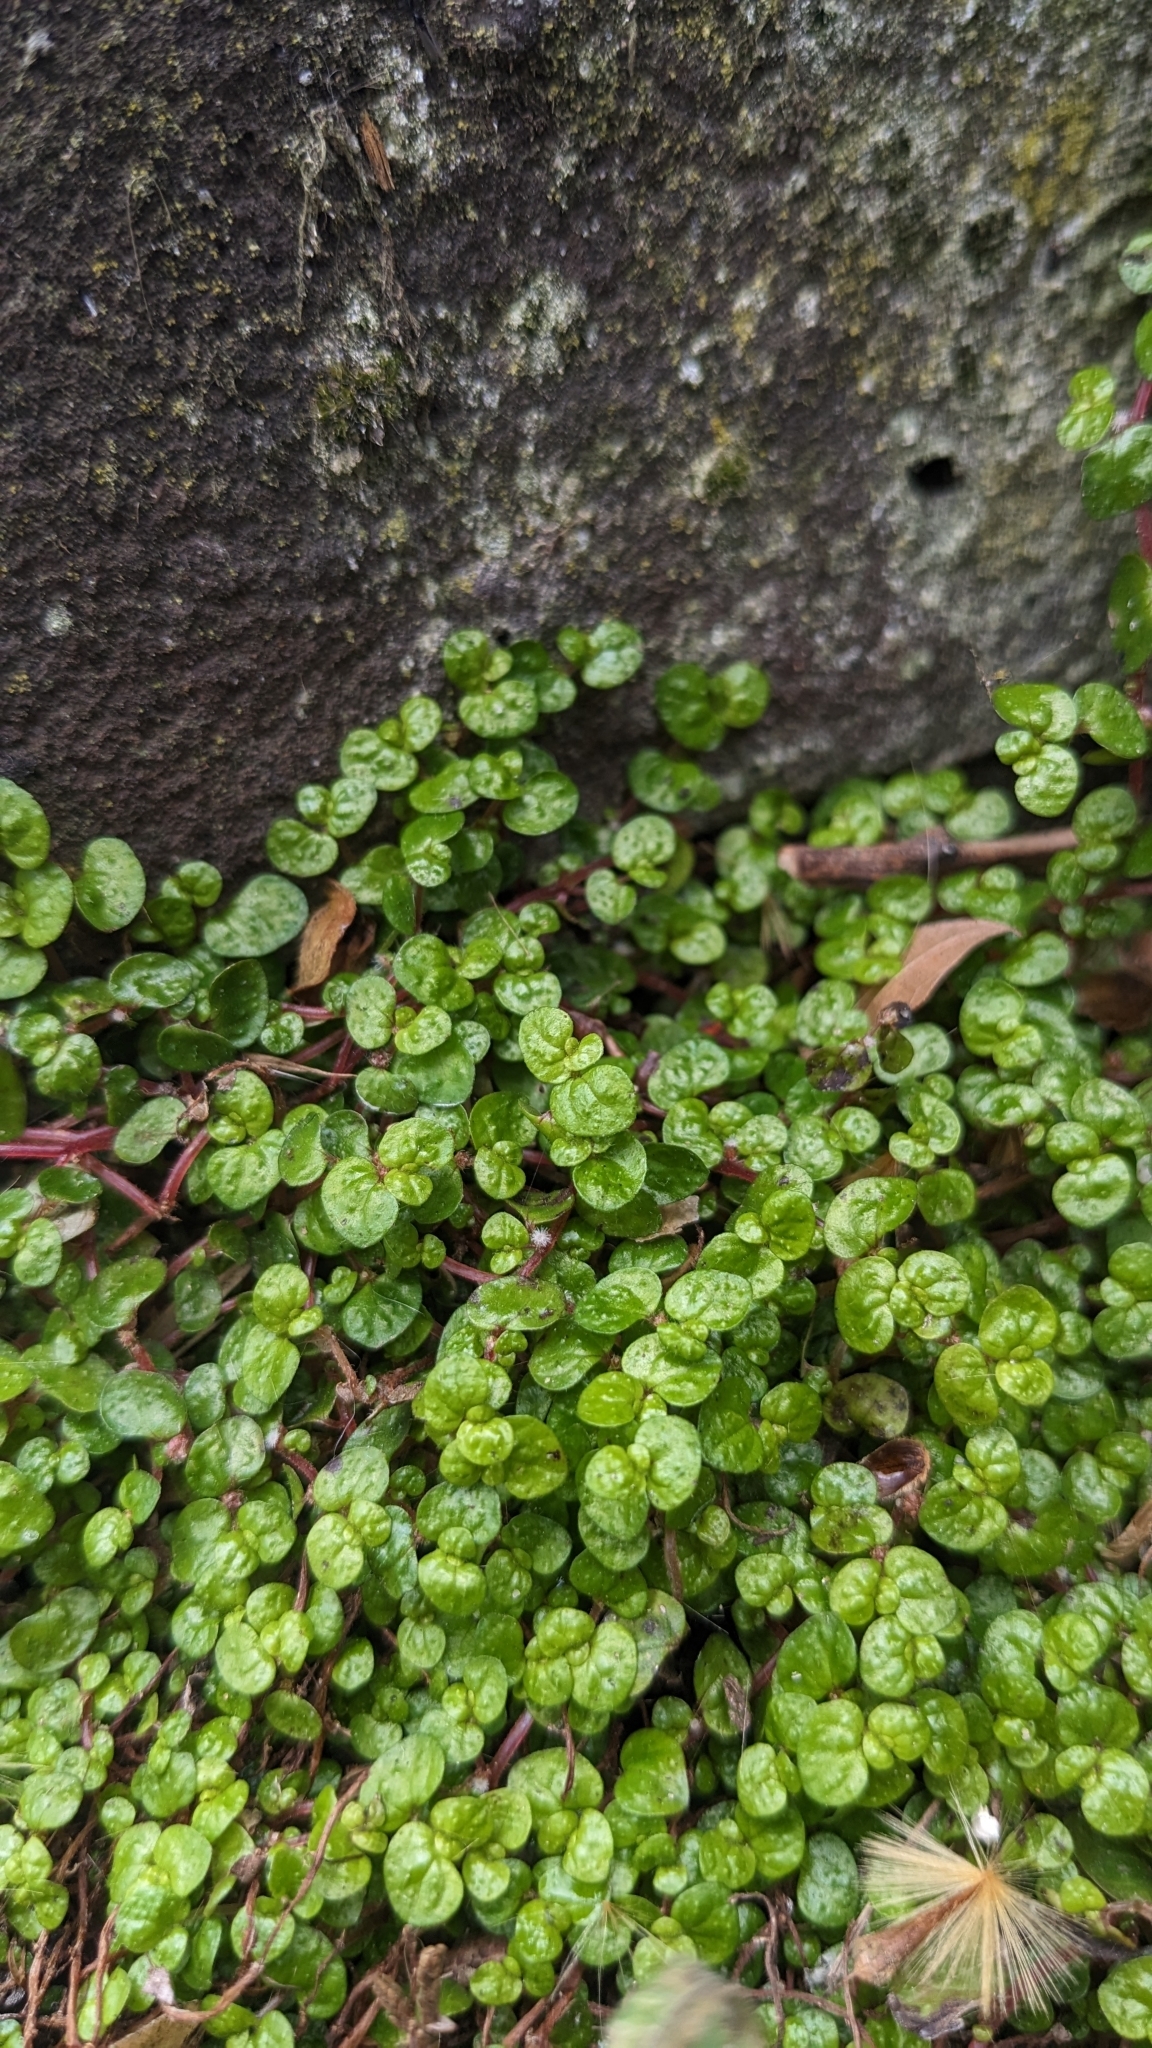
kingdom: Plantae
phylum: Tracheophyta
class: Magnoliopsida
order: Rosales
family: Urticaceae
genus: Soleirolia
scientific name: Soleirolia soleirolii
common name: Mind-your-own-business
